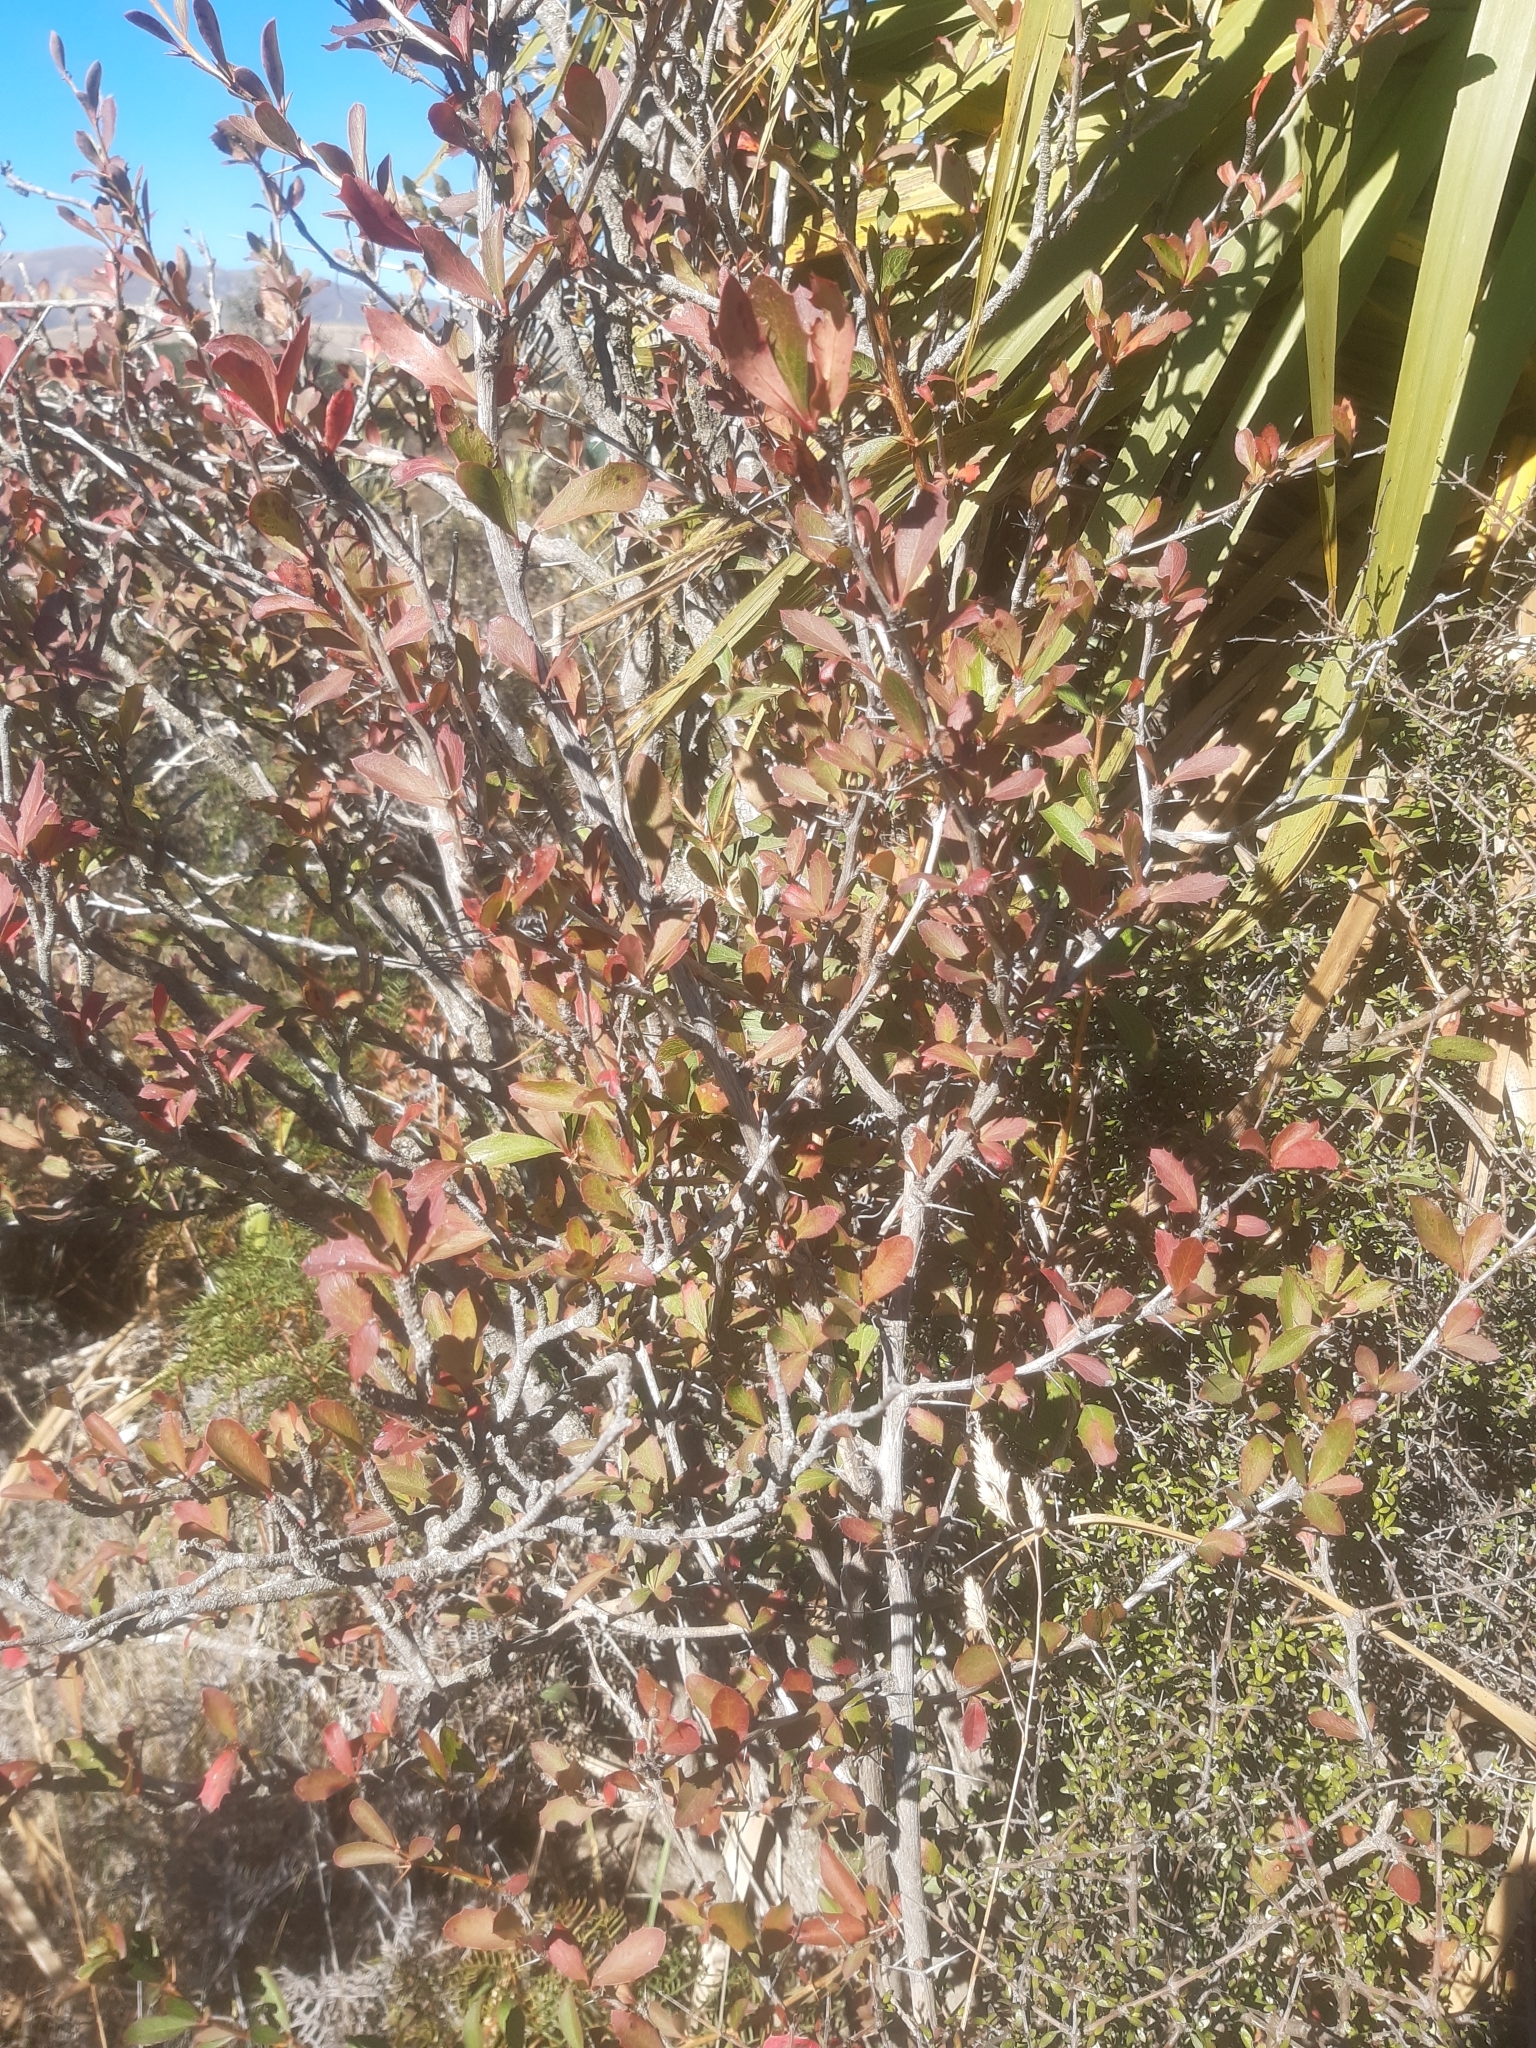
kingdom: Plantae
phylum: Tracheophyta
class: Magnoliopsida
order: Ranunculales
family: Berberidaceae
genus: Berberis
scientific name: Berberis glaucocarpa
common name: Great barberry
